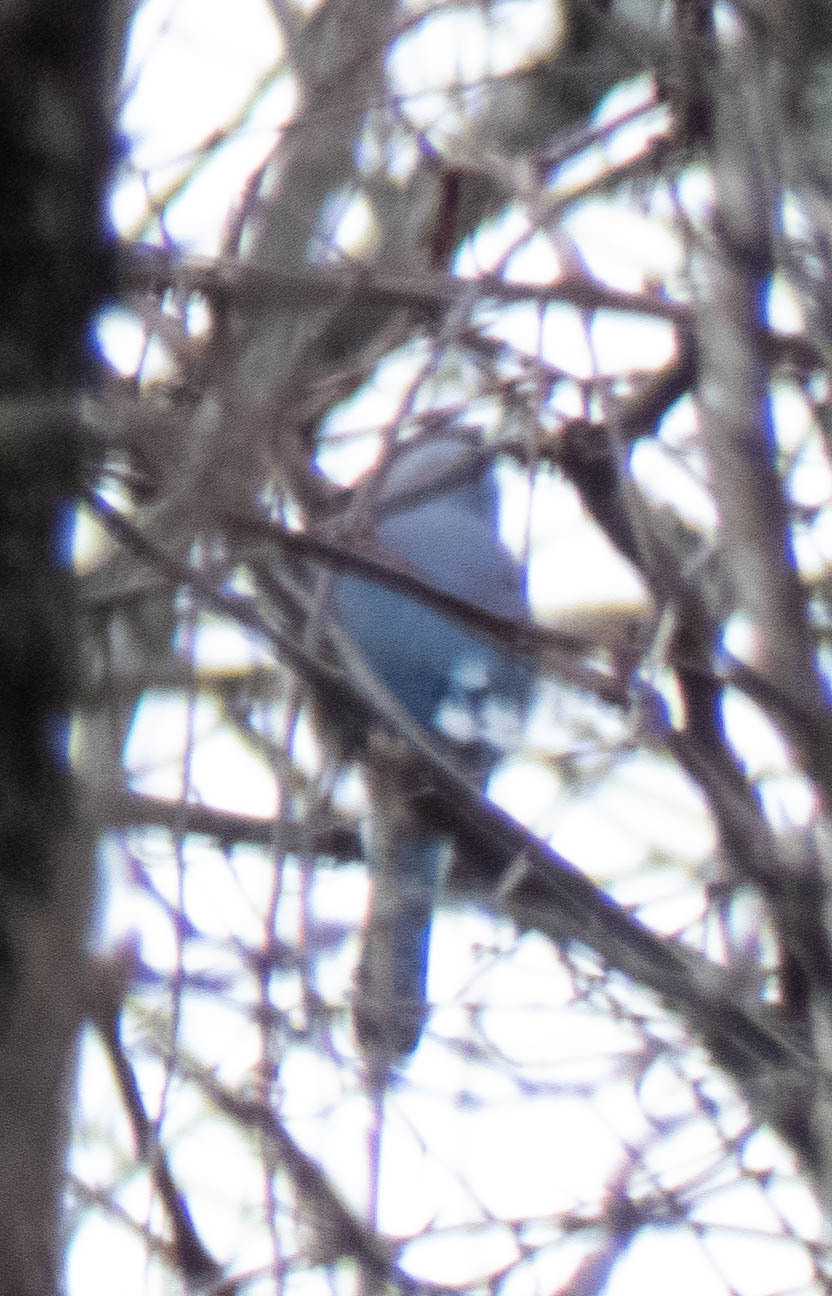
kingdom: Animalia
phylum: Chordata
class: Aves
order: Passeriformes
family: Corvidae
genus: Cyanocitta
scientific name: Cyanocitta cristata
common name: Blue jay
